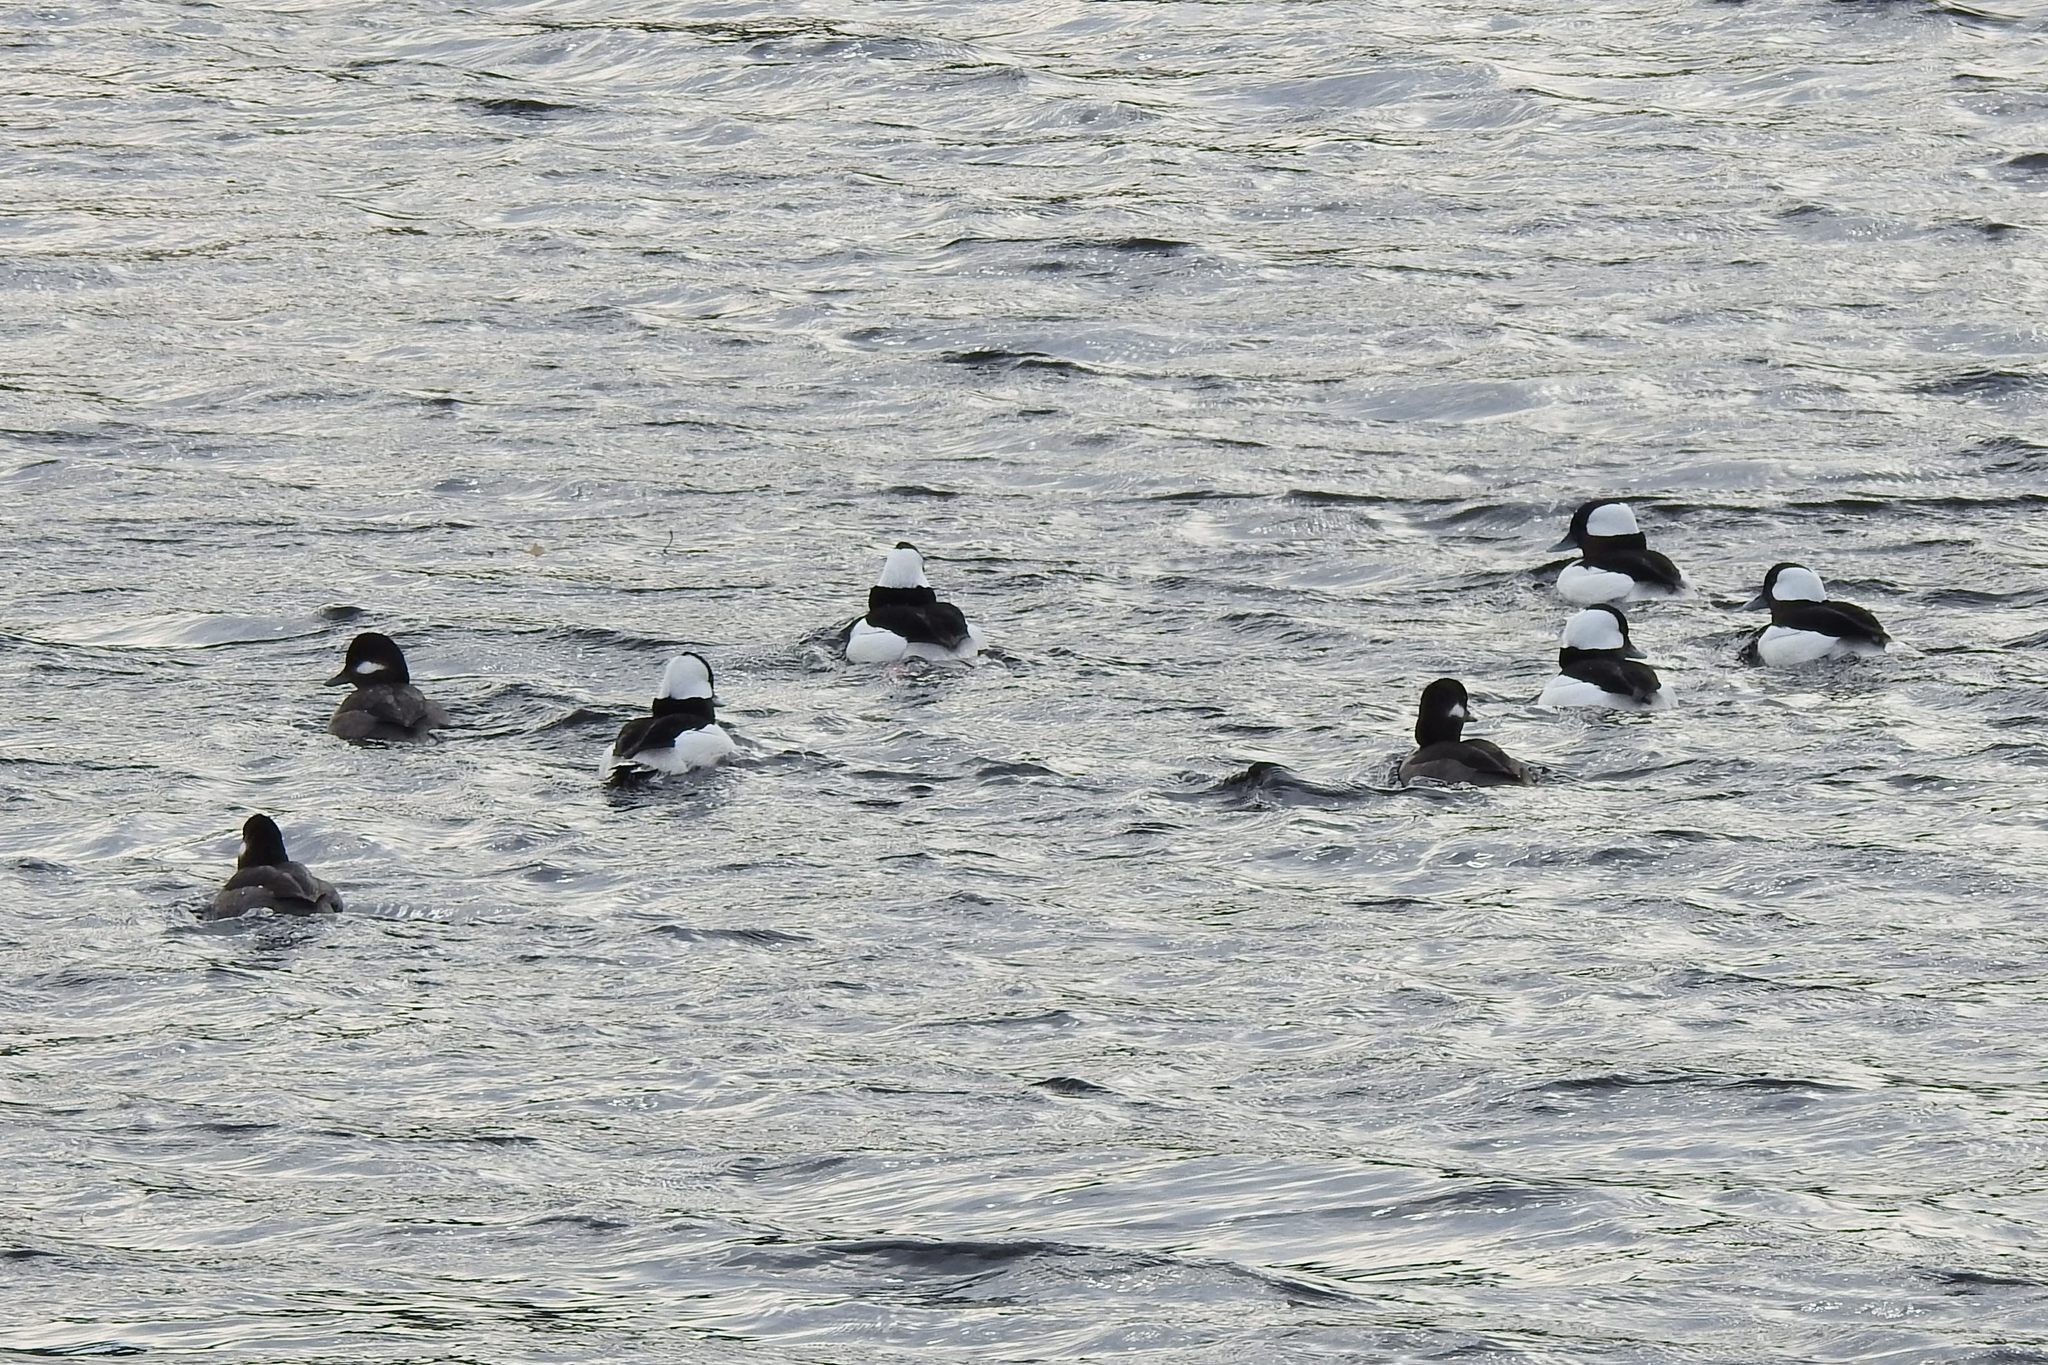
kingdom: Animalia
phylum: Chordata
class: Aves
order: Anseriformes
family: Anatidae
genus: Bucephala
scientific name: Bucephala albeola
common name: Bufflehead
